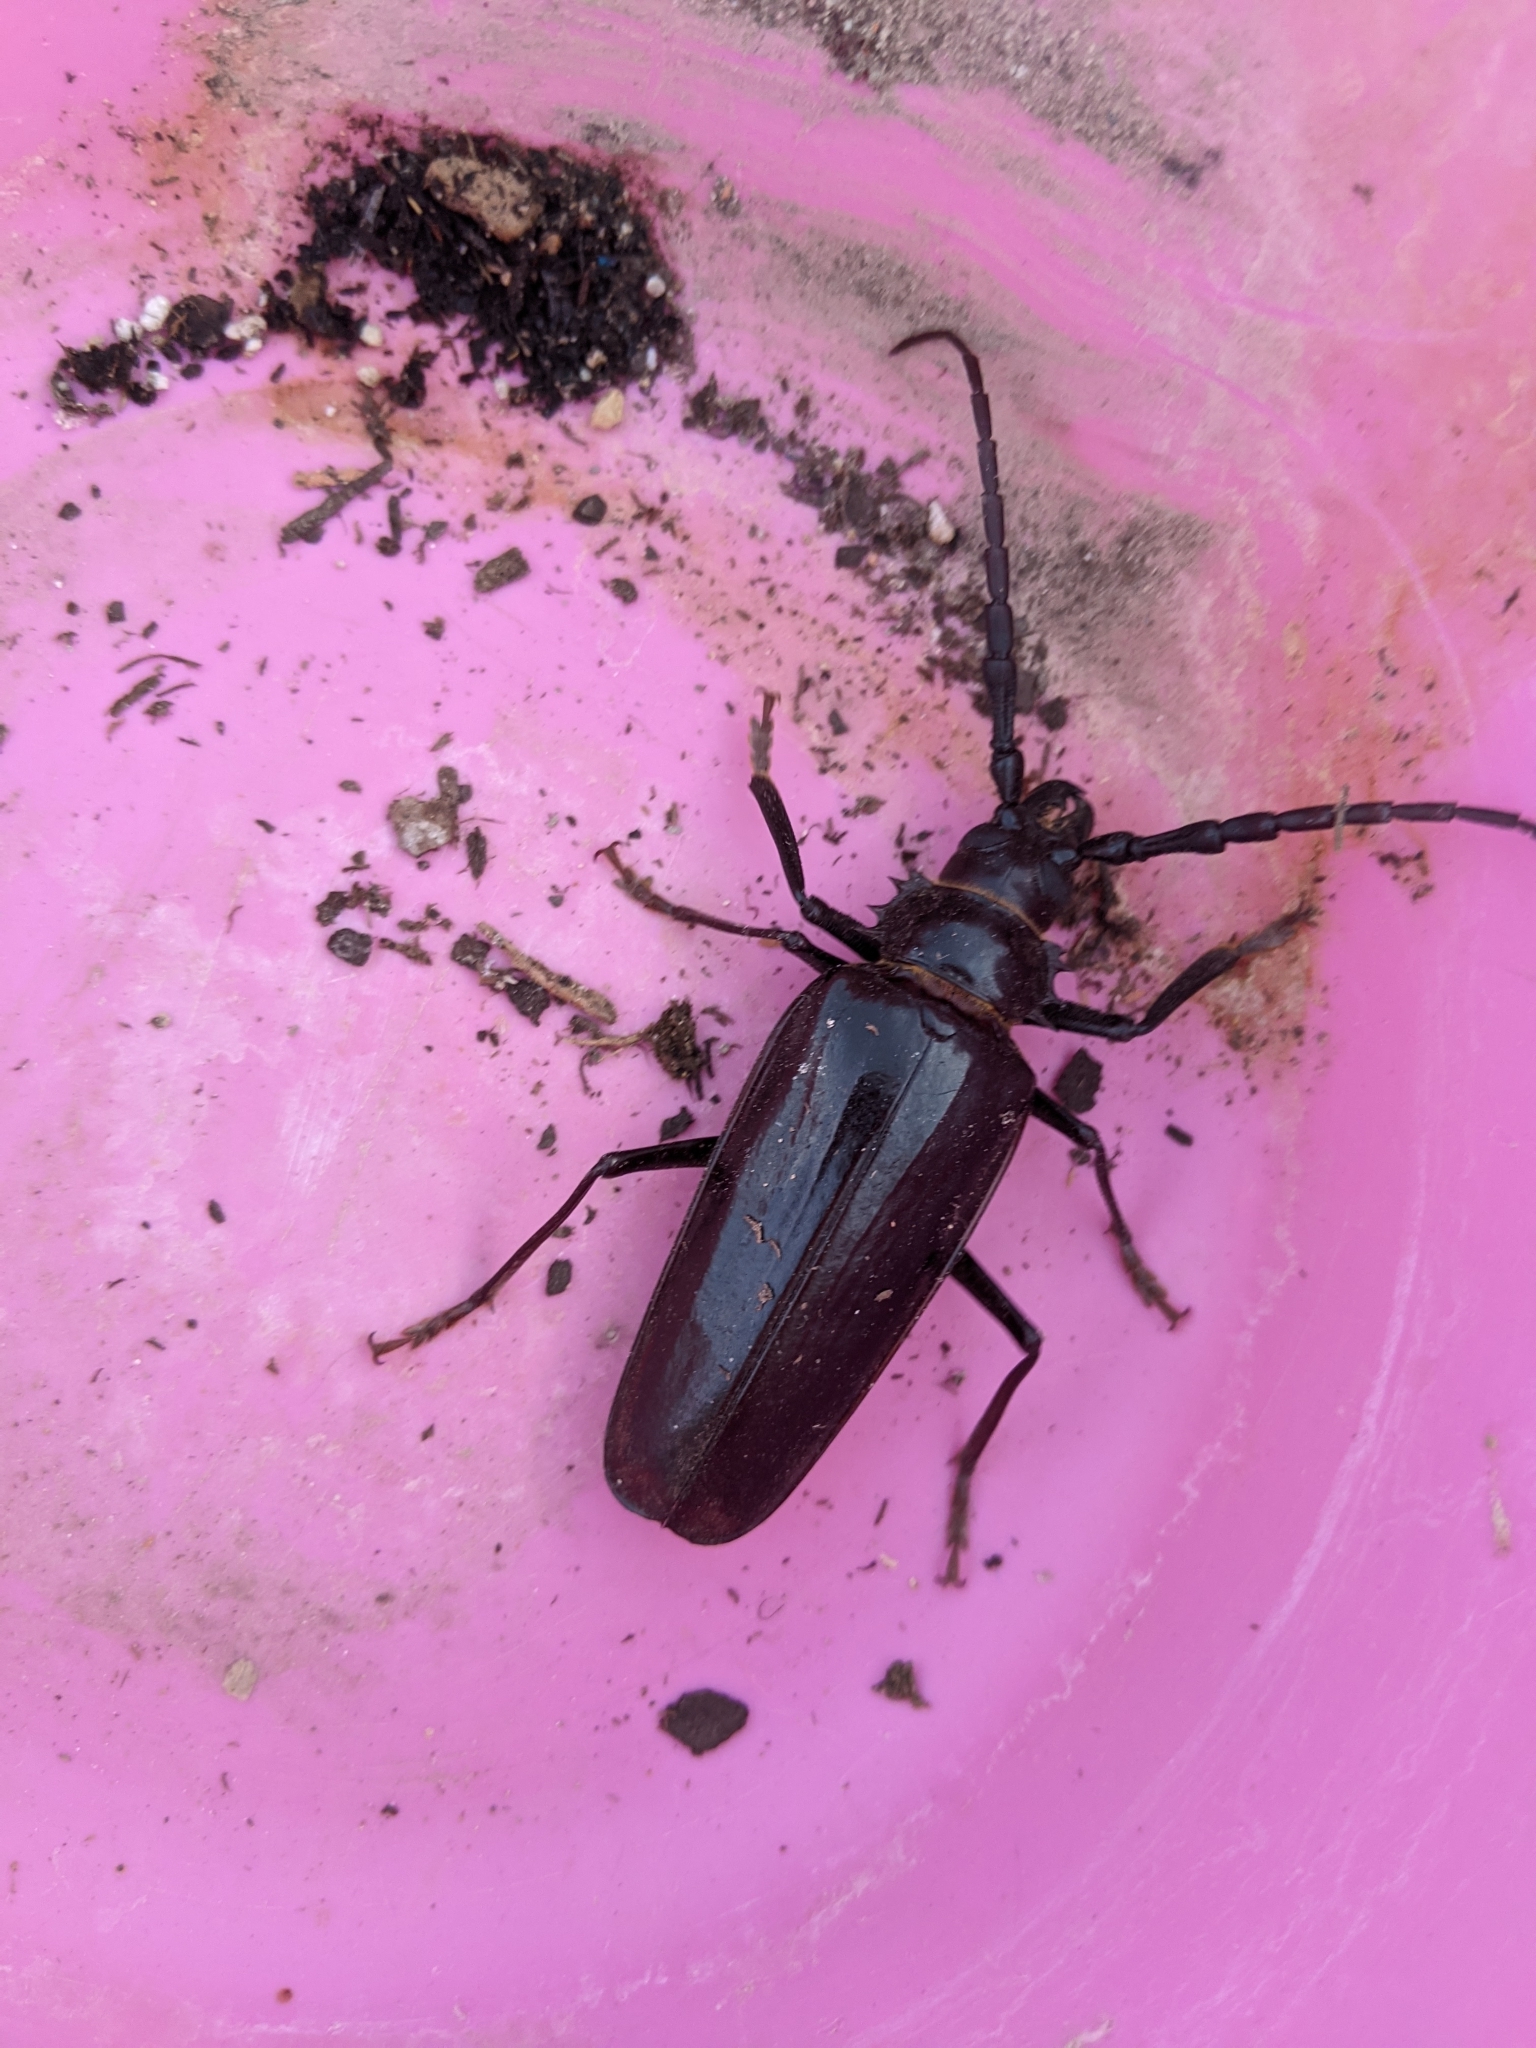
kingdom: Animalia
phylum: Arthropoda
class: Insecta
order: Coleoptera
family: Cerambycidae
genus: Derobrachus
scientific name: Derobrachus hovorei
